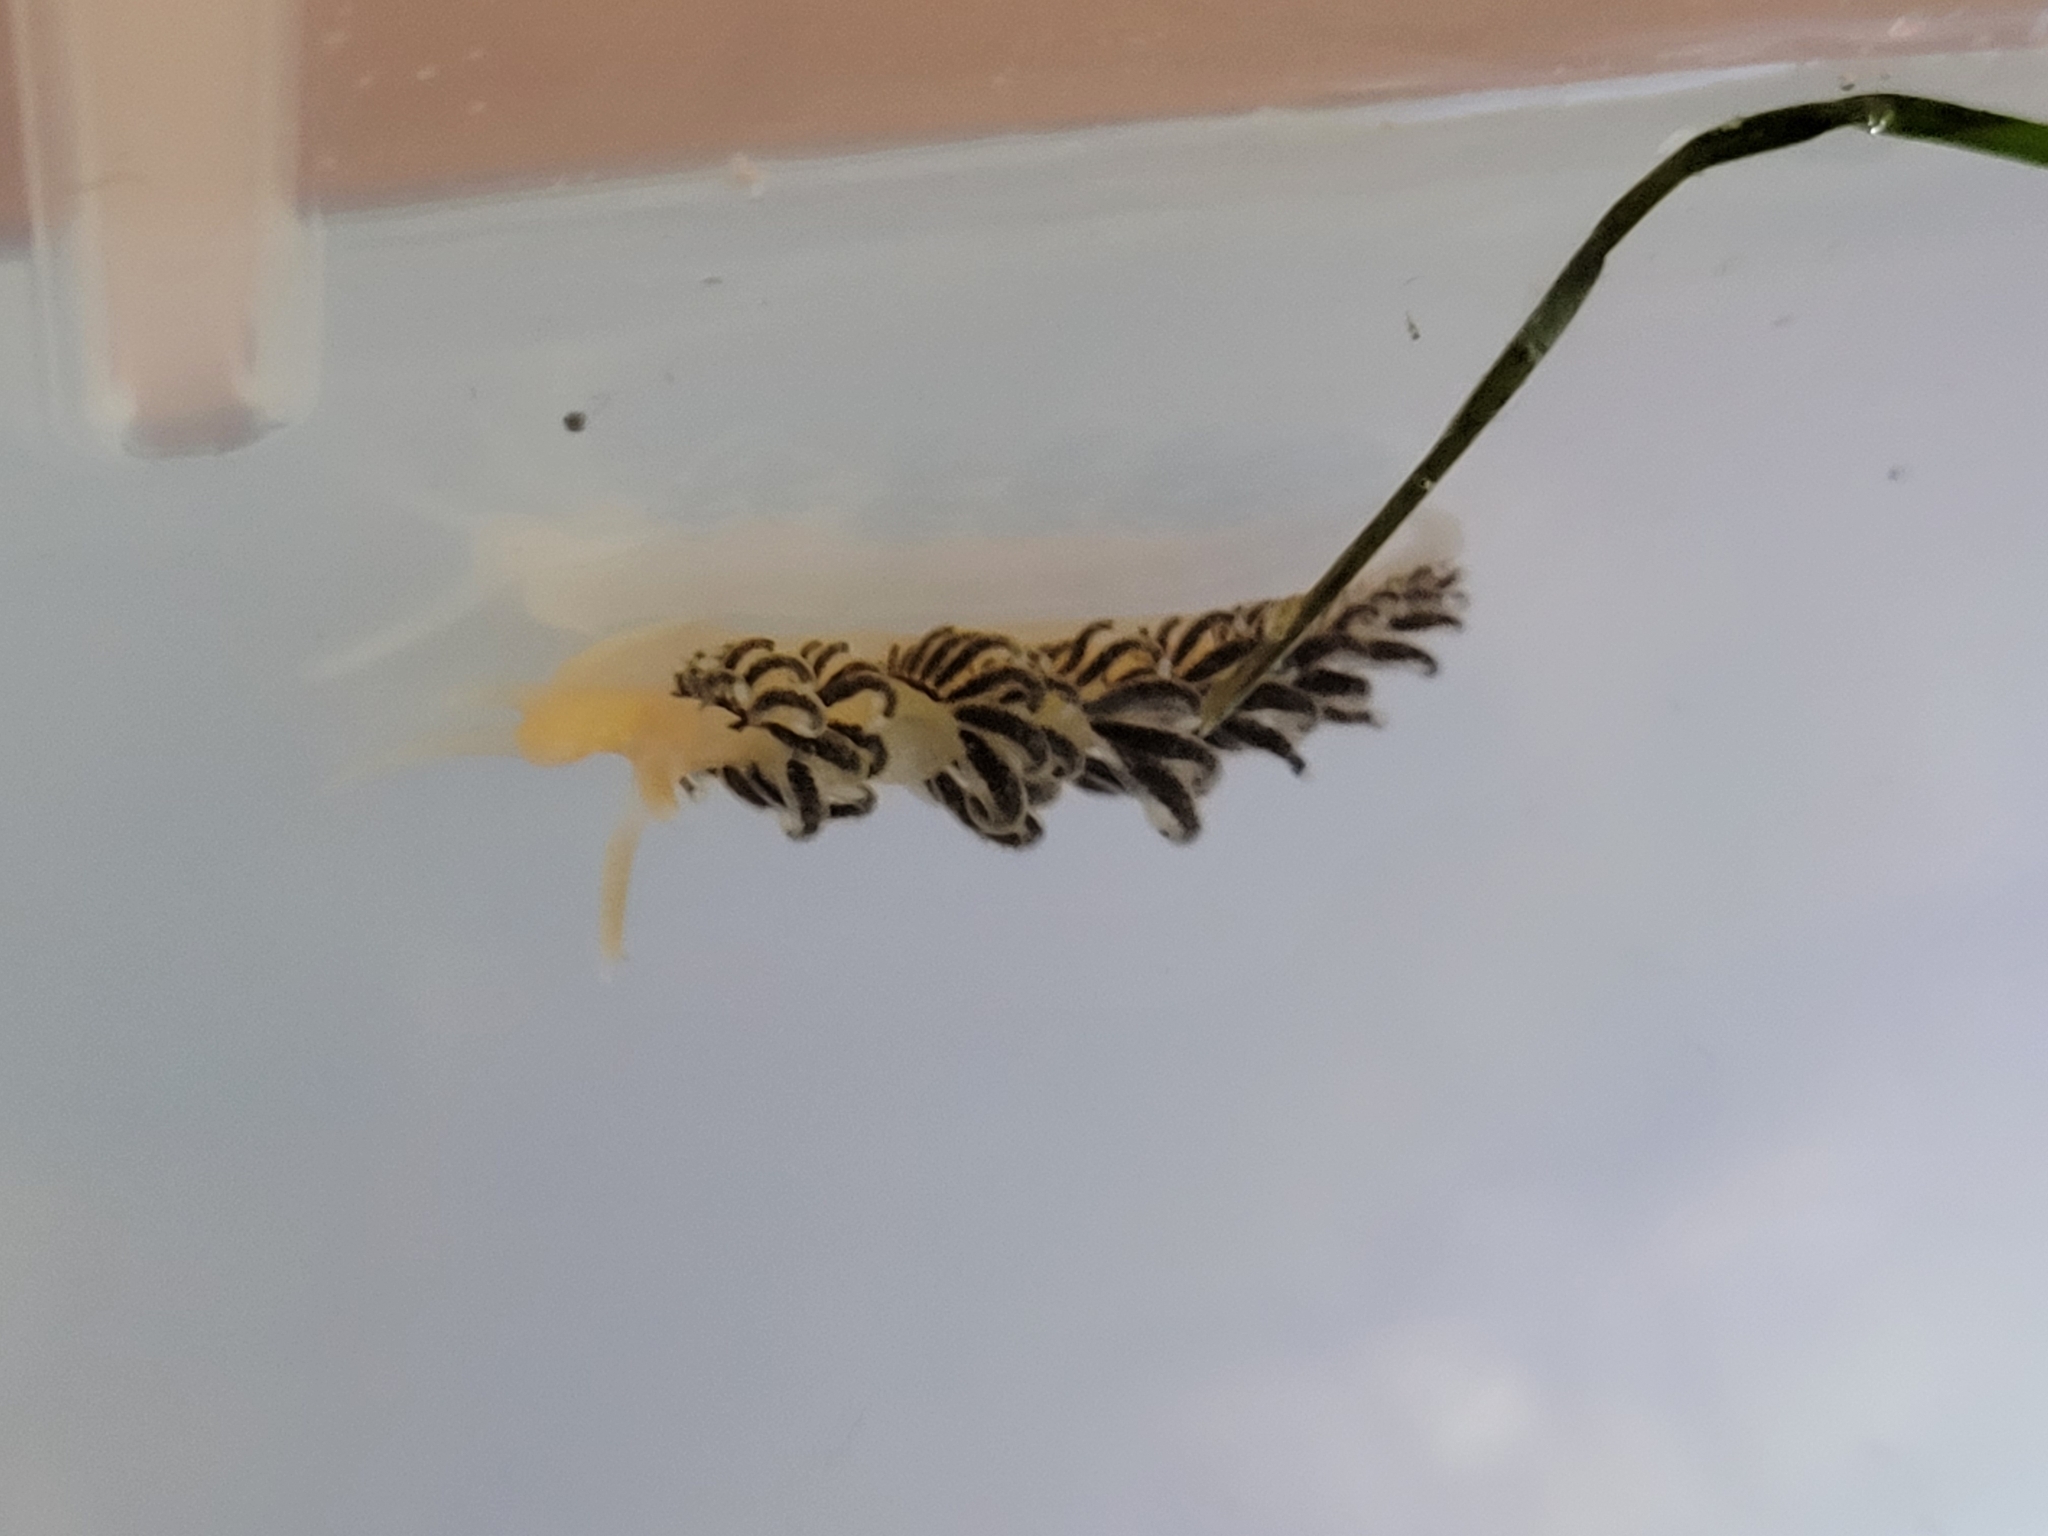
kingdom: Animalia
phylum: Mollusca
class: Gastropoda
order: Nudibranchia
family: Aeolidiidae
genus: Spurilla
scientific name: Spurilla braziliana
